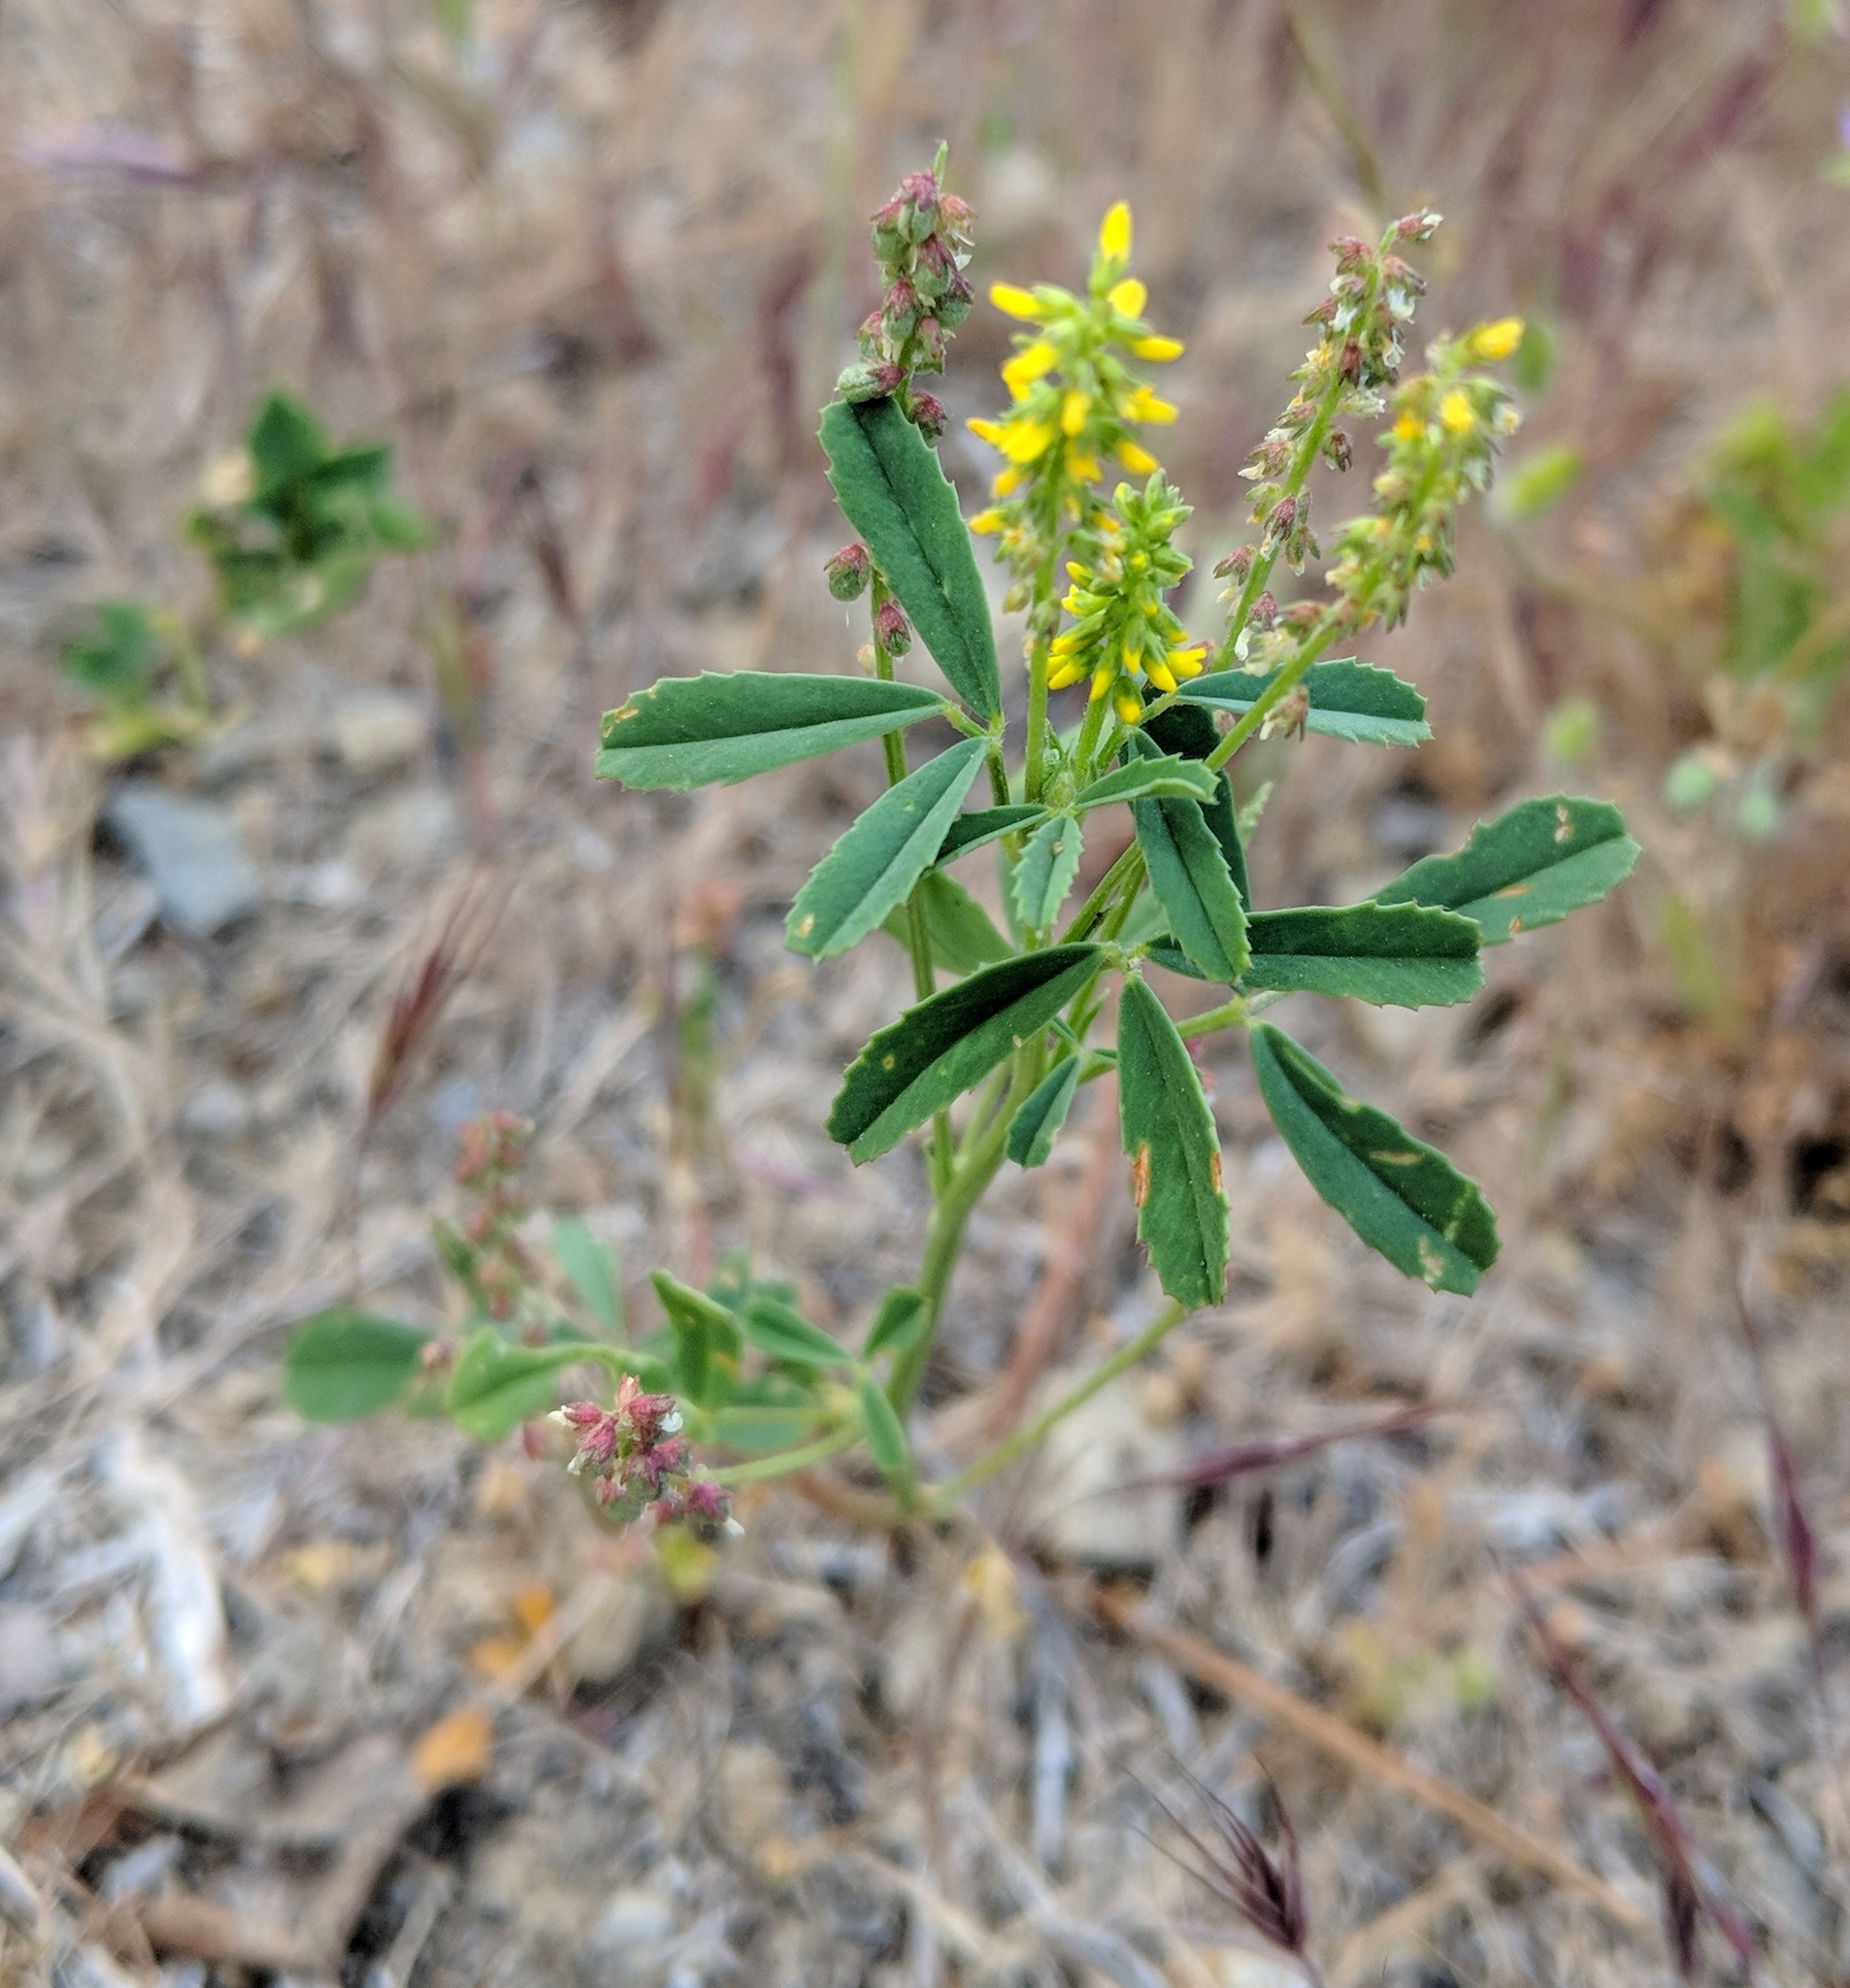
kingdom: Plantae
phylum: Tracheophyta
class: Magnoliopsida
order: Fabales
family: Fabaceae
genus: Melilotus
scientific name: Melilotus indicus
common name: Small melilot
